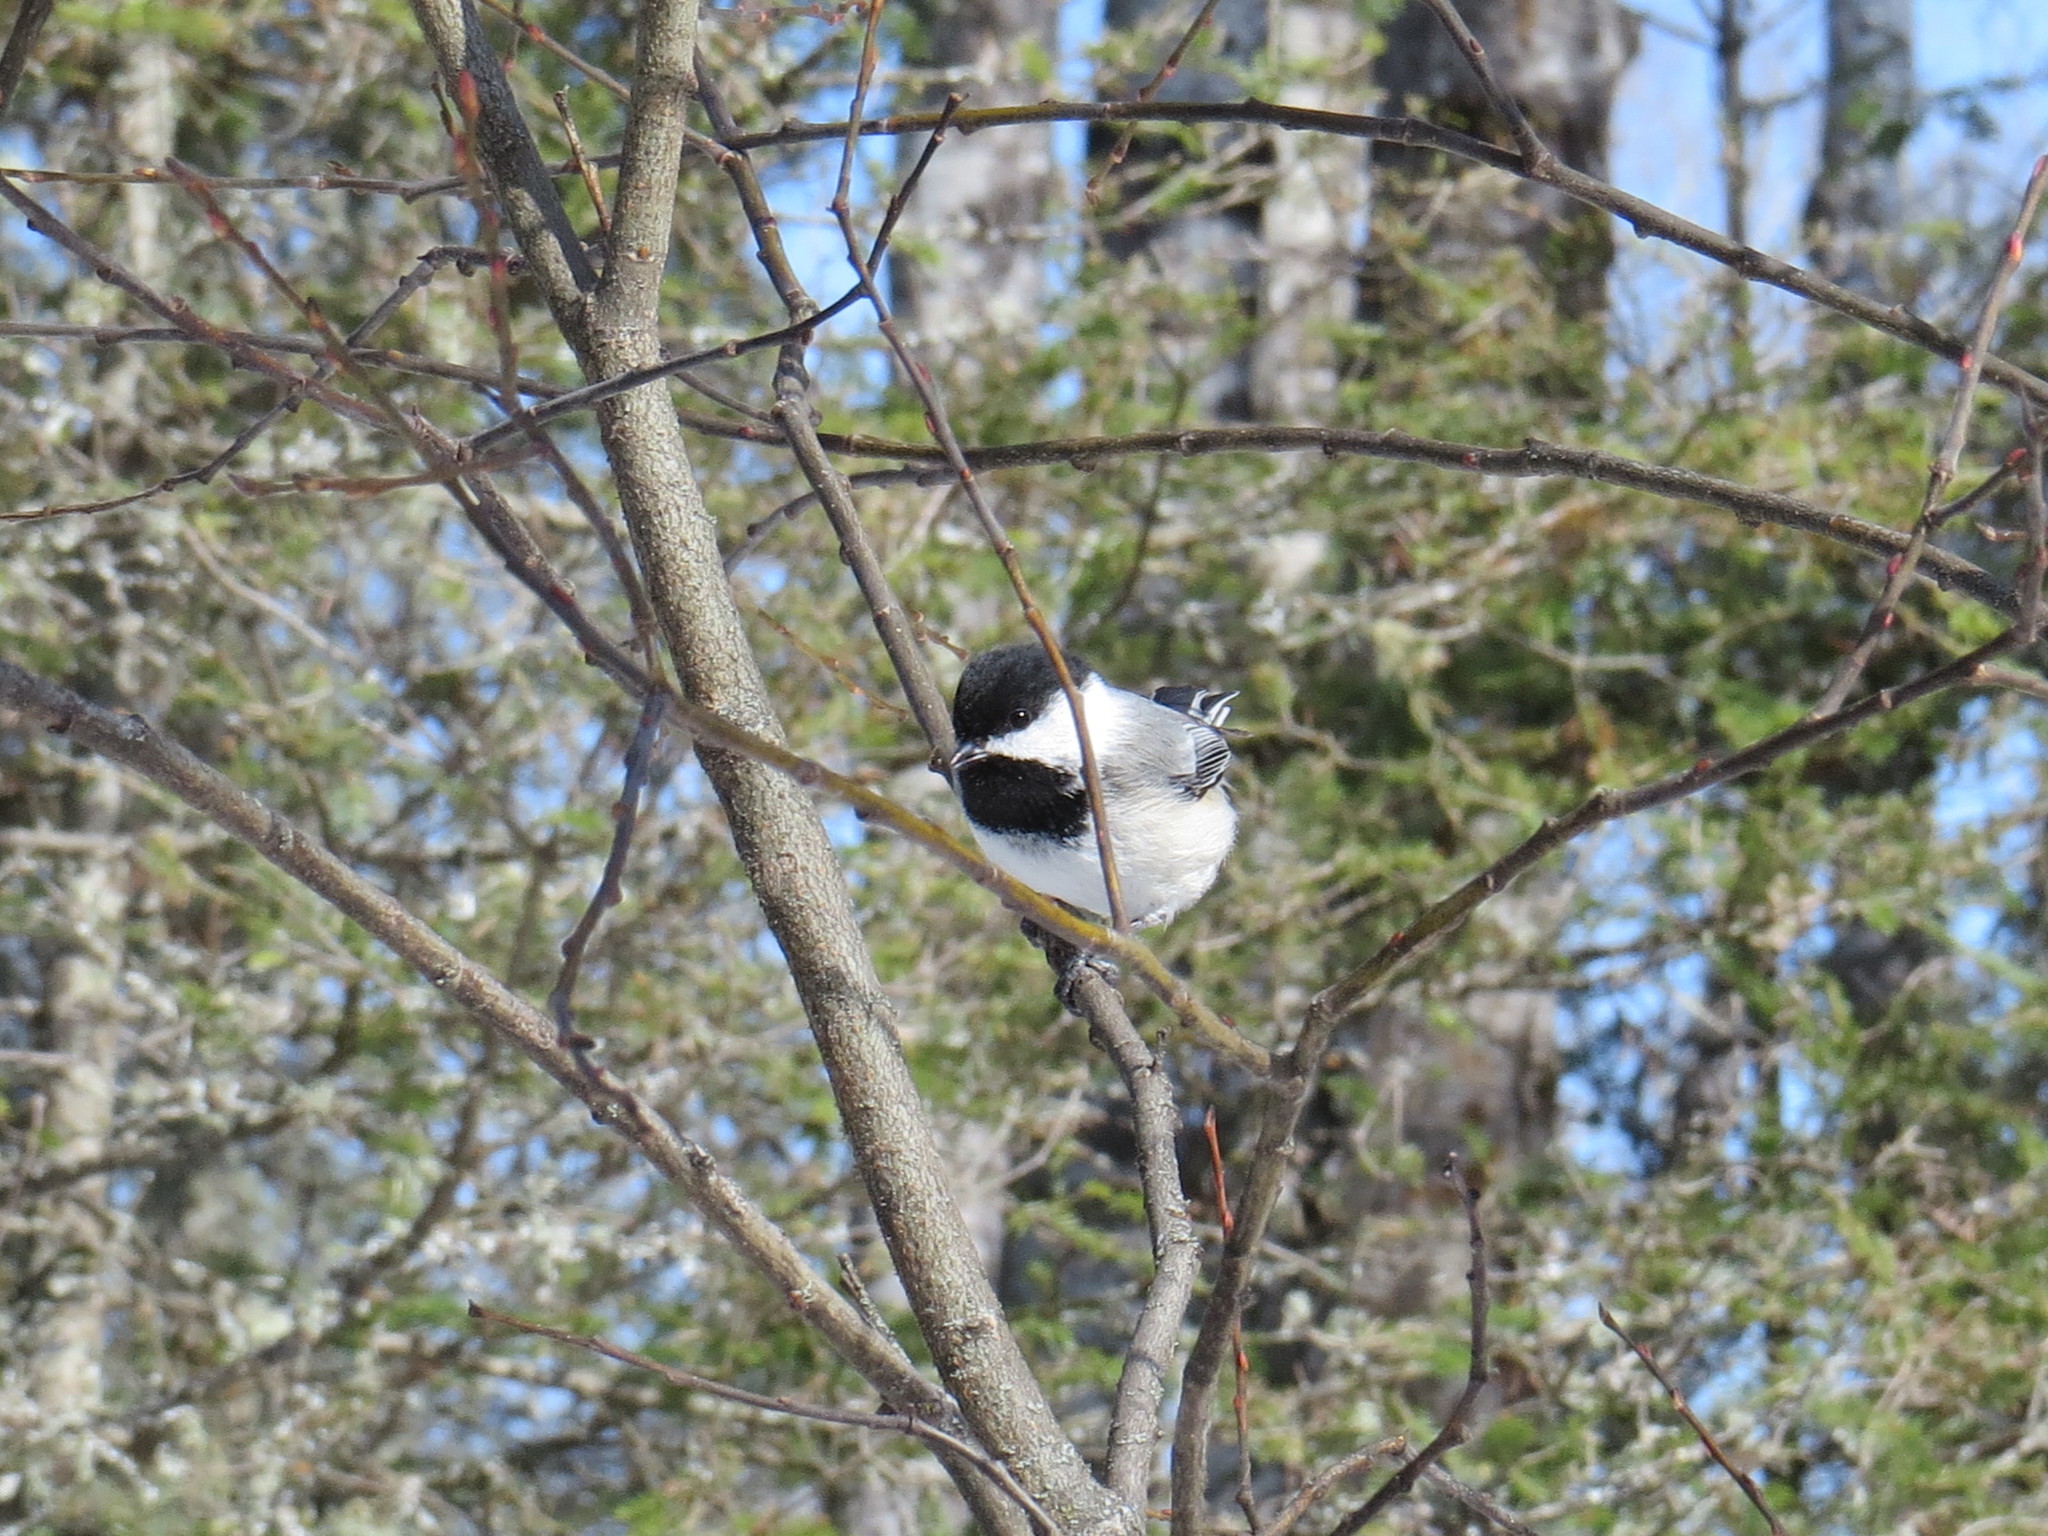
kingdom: Animalia
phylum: Chordata
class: Aves
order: Passeriformes
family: Paridae
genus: Poecile
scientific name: Poecile atricapillus
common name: Black-capped chickadee
